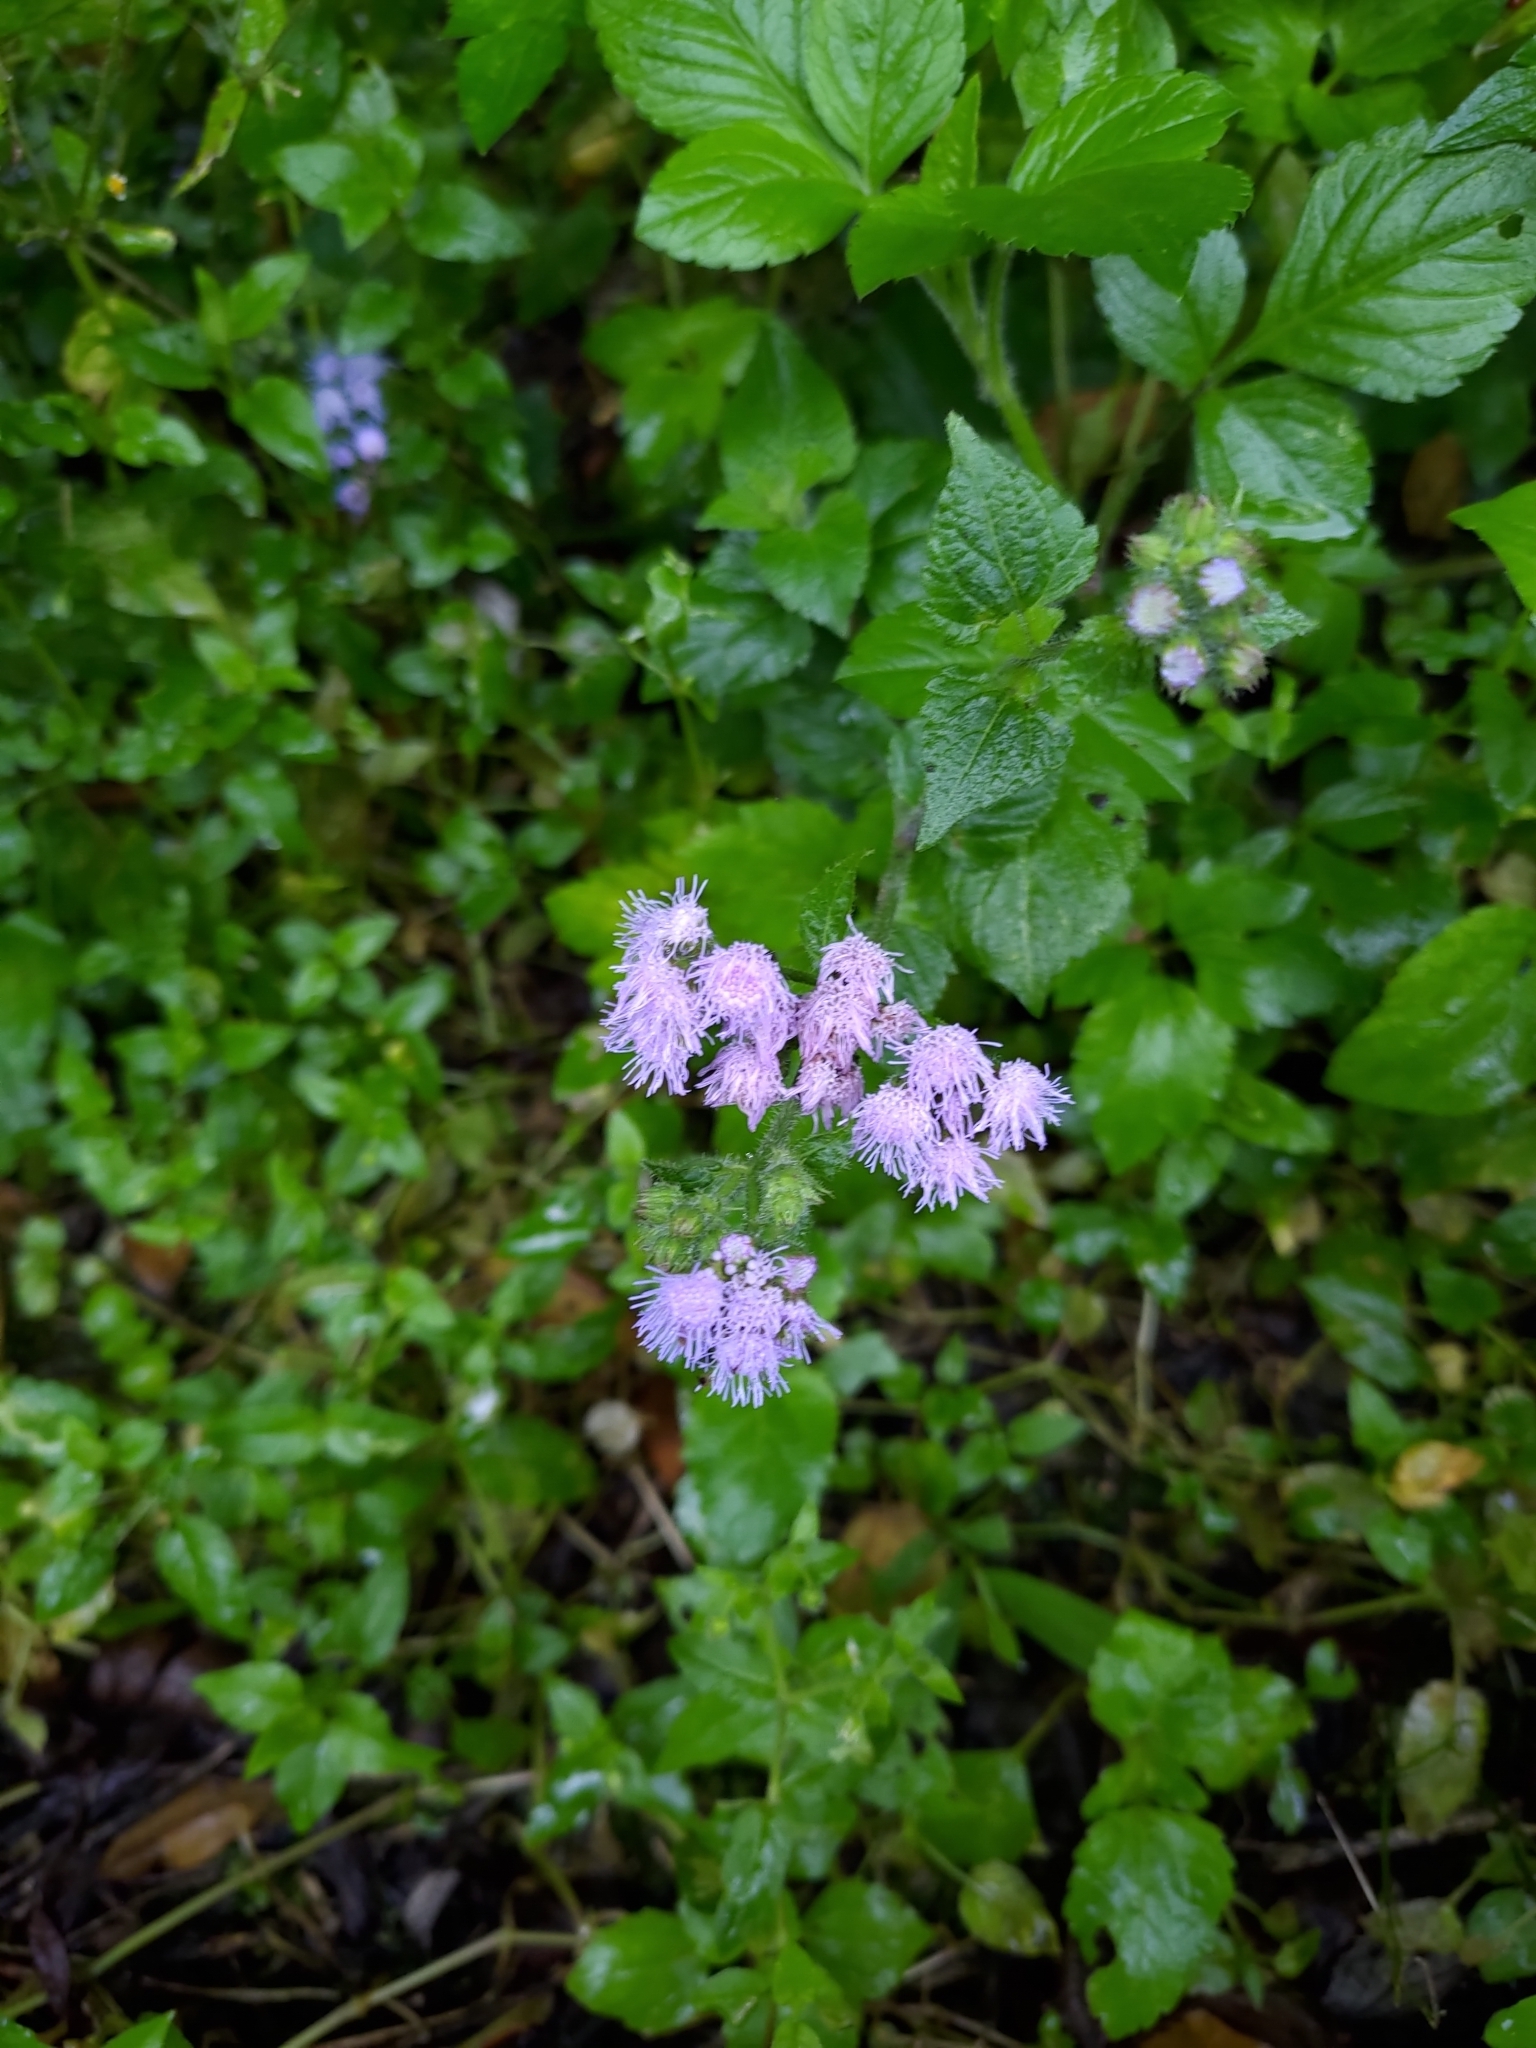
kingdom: Plantae
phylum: Tracheophyta
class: Magnoliopsida
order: Asterales
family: Asteraceae
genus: Ageratum
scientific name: Ageratum houstonianum
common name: Bluemink
